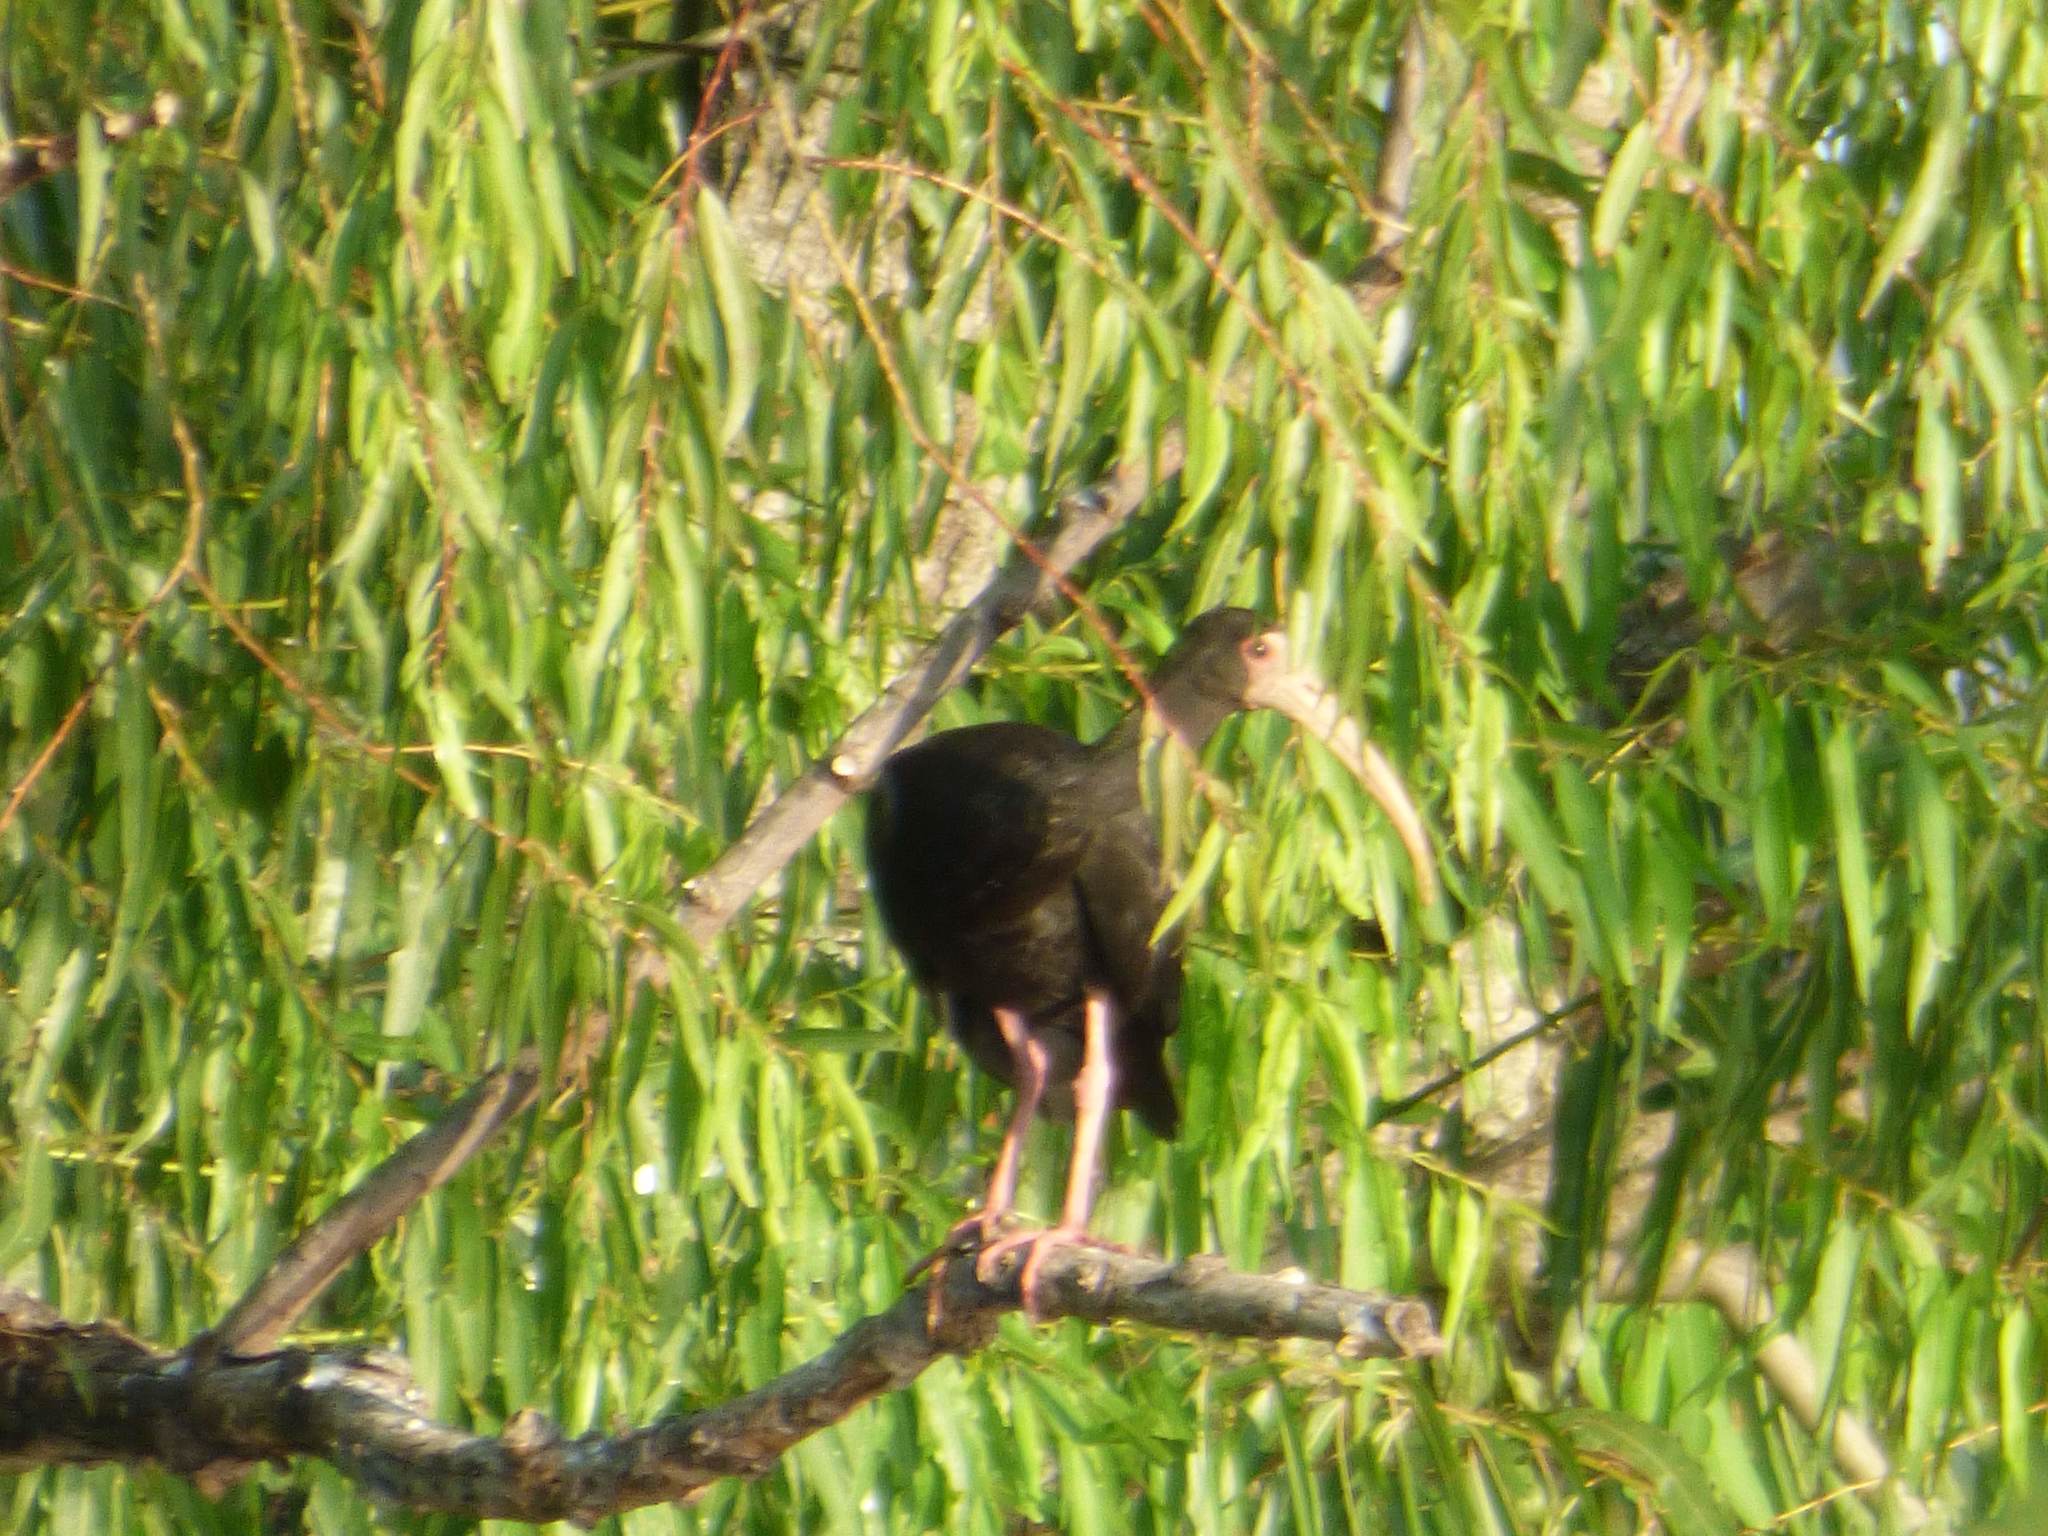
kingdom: Animalia
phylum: Chordata
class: Aves
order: Pelecaniformes
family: Threskiornithidae
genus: Phimosus
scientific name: Phimosus infuscatus
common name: Bare-faced ibis
